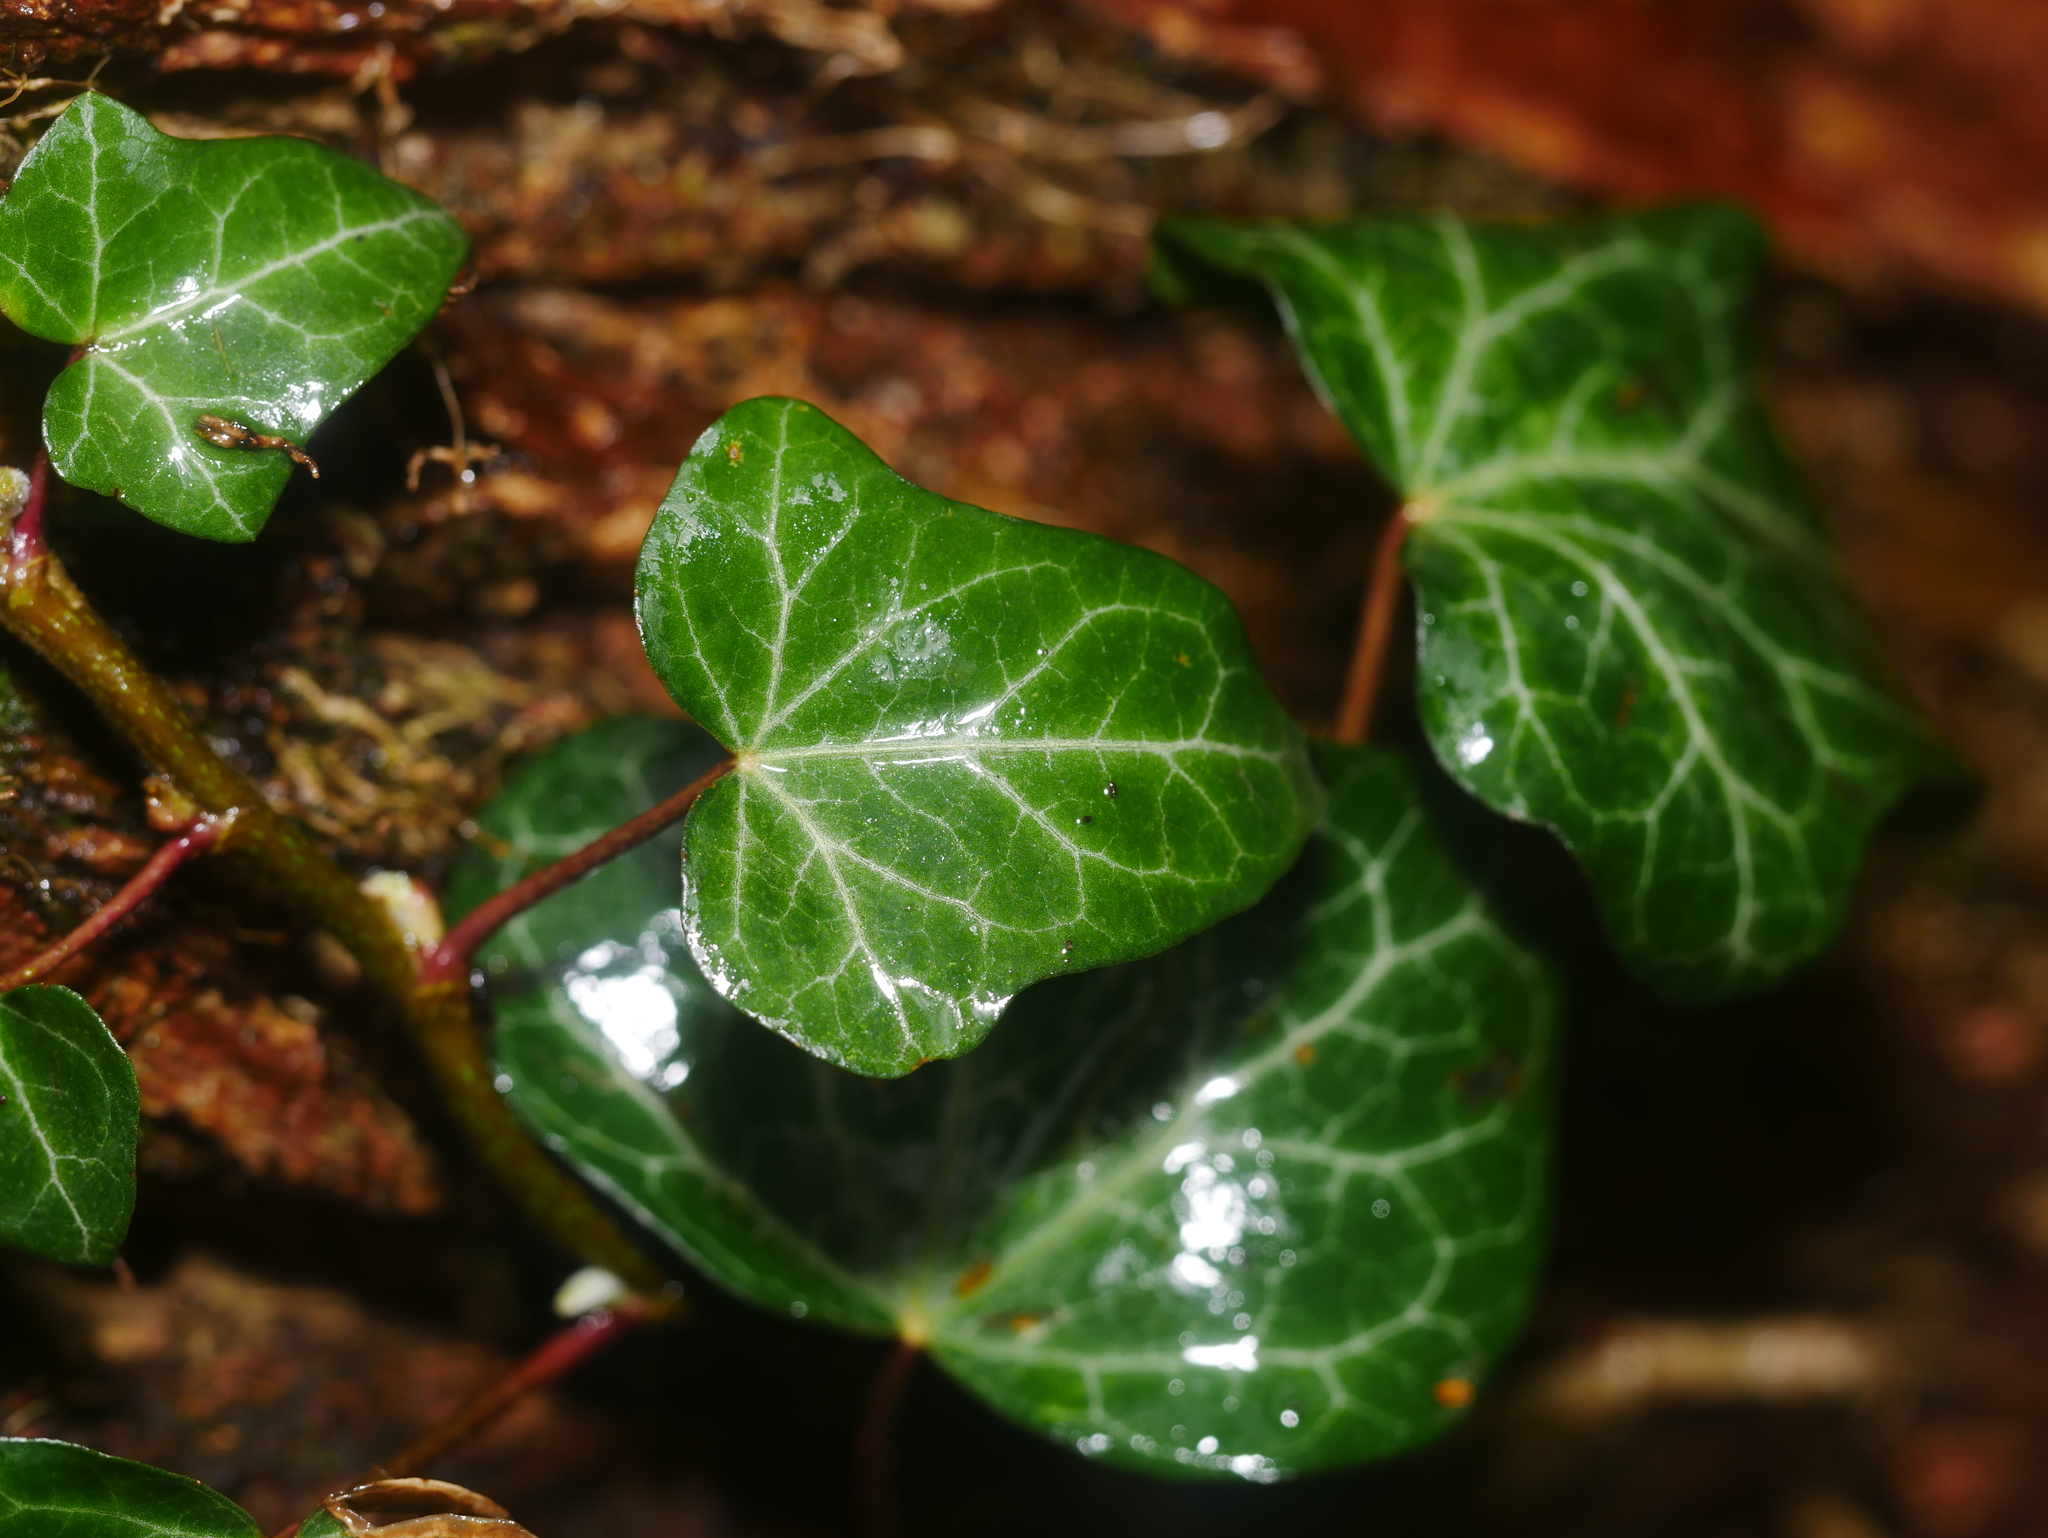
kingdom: Plantae
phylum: Tracheophyta
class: Magnoliopsida
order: Apiales
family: Araliaceae
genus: Hedera
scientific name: Hedera helix
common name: Ivy
